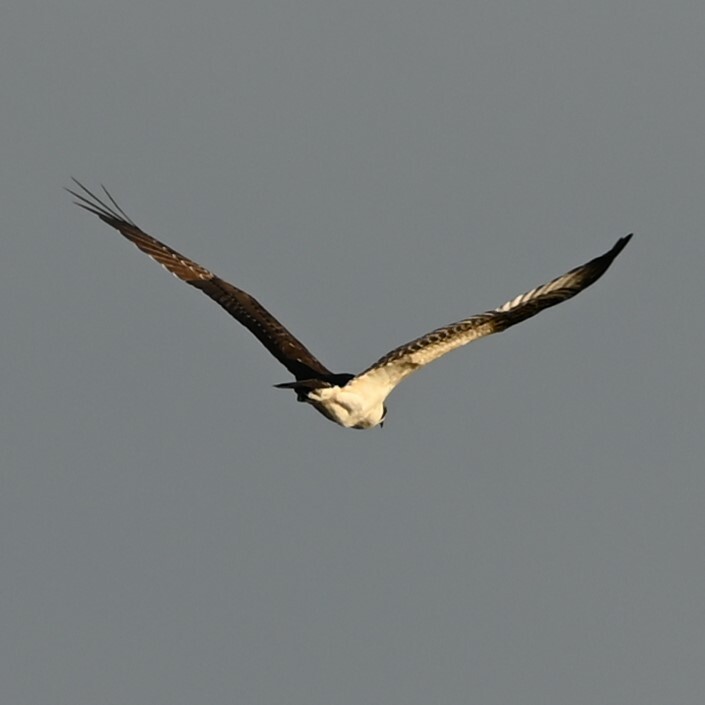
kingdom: Animalia
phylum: Chordata
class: Aves
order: Accipitriformes
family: Pandionidae
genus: Pandion
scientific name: Pandion haliaetus
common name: Osprey
